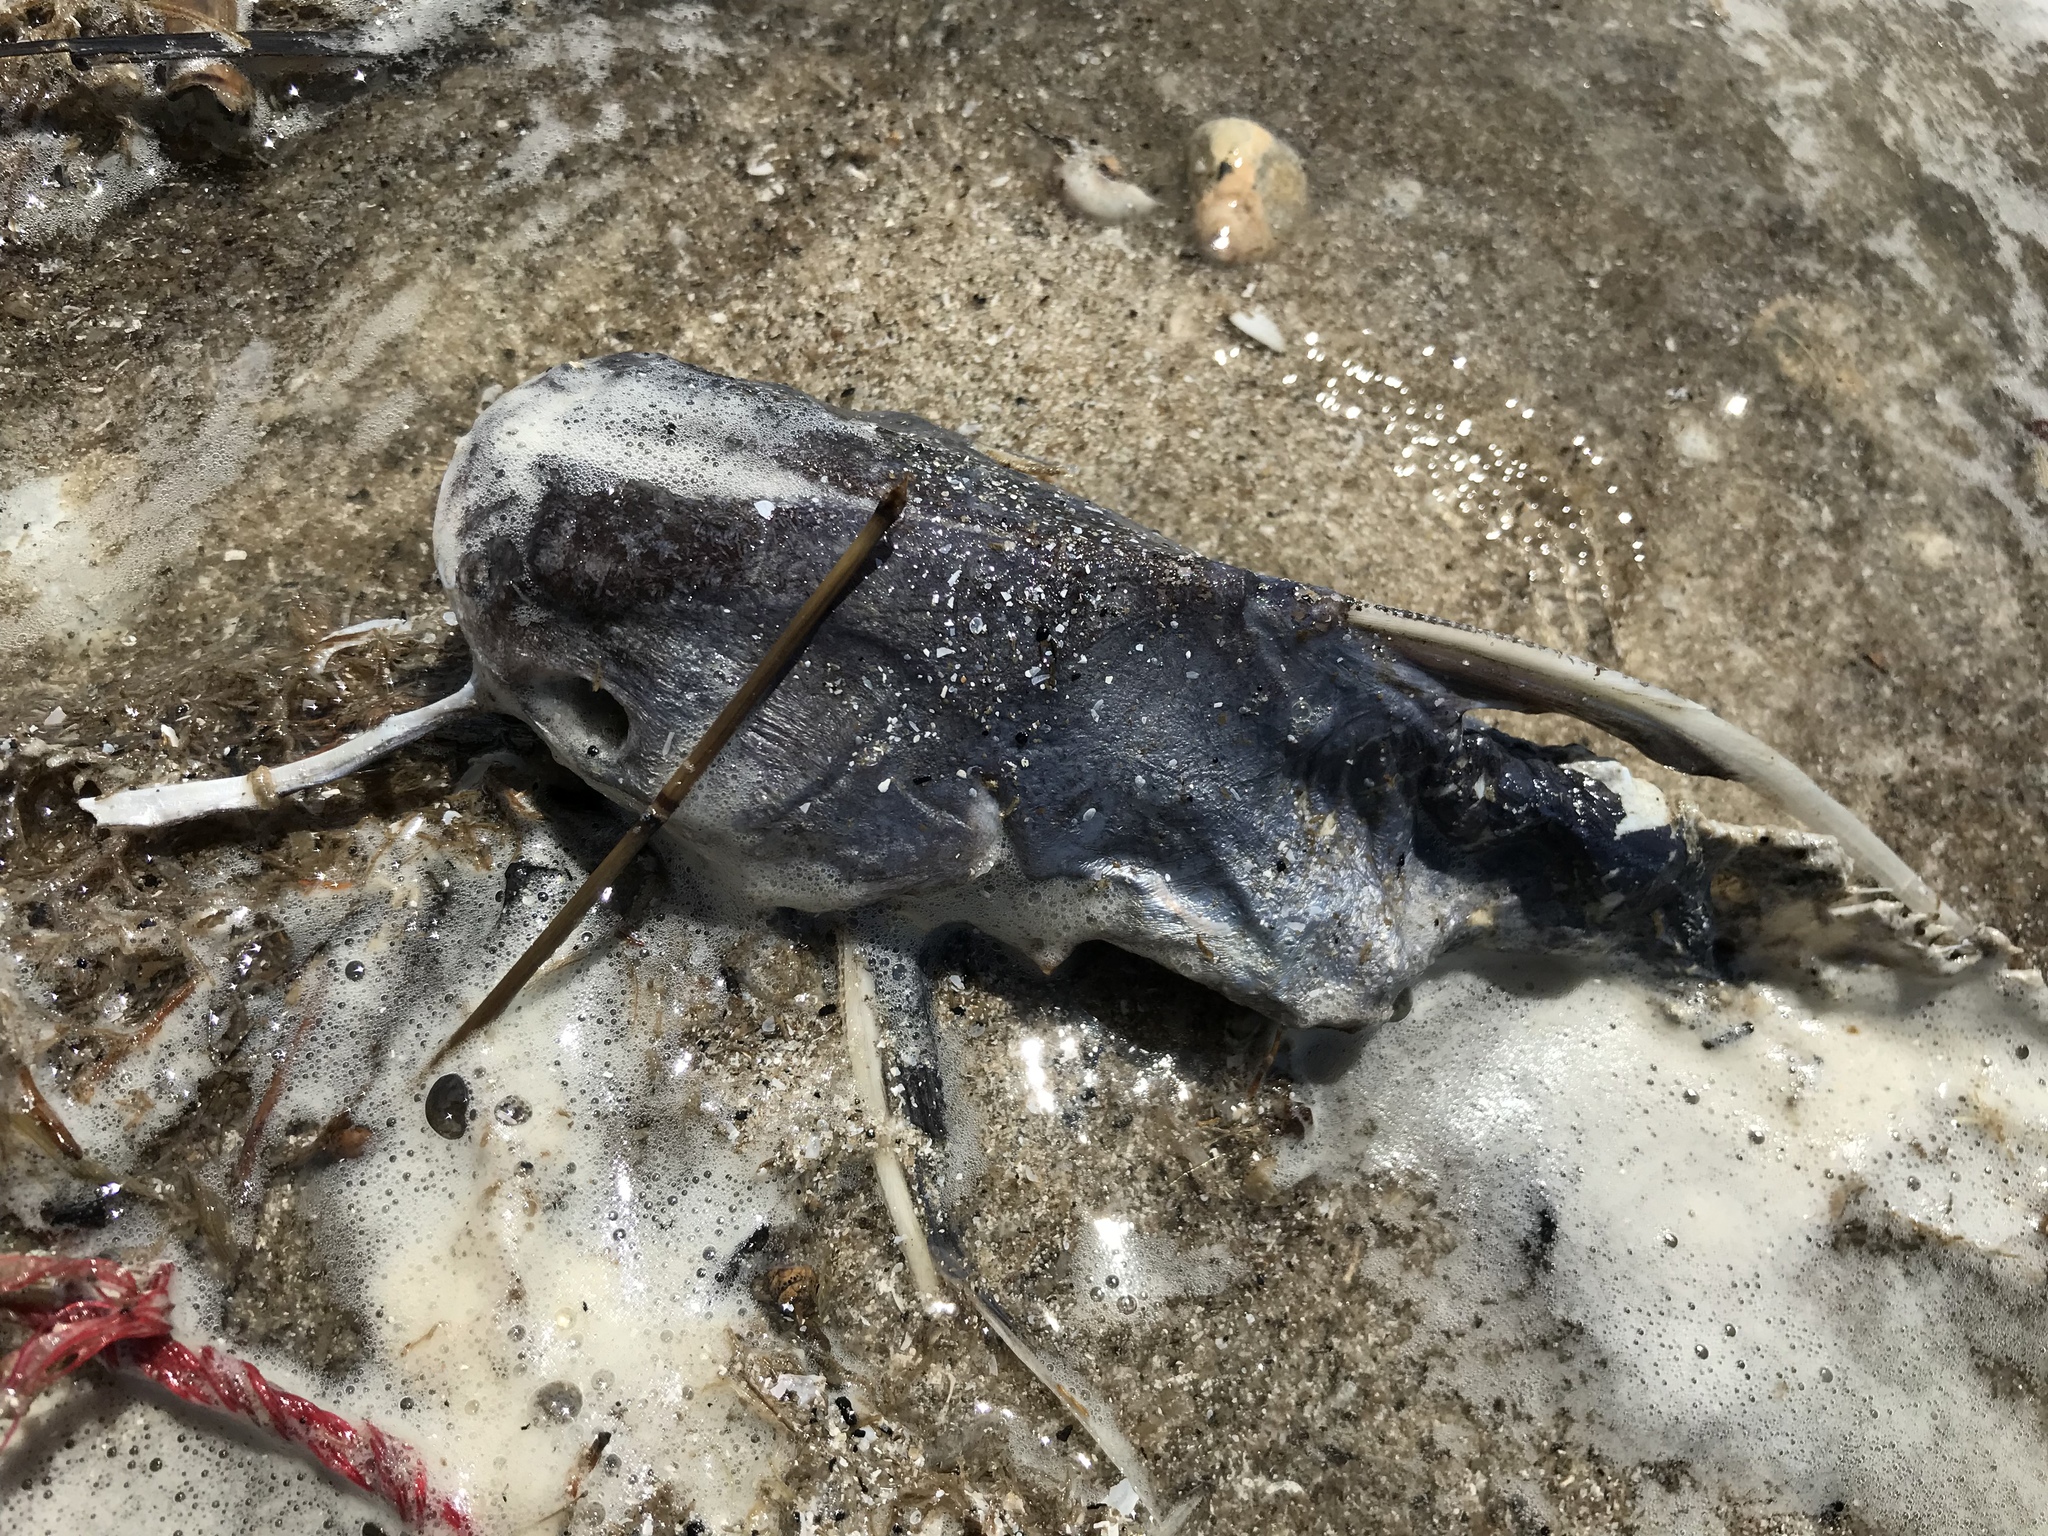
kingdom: Animalia
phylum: Chordata
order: Siluriformes
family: Ariidae
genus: Bagre
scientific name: Bagre marinus
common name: Gafftopsail sea catfish
